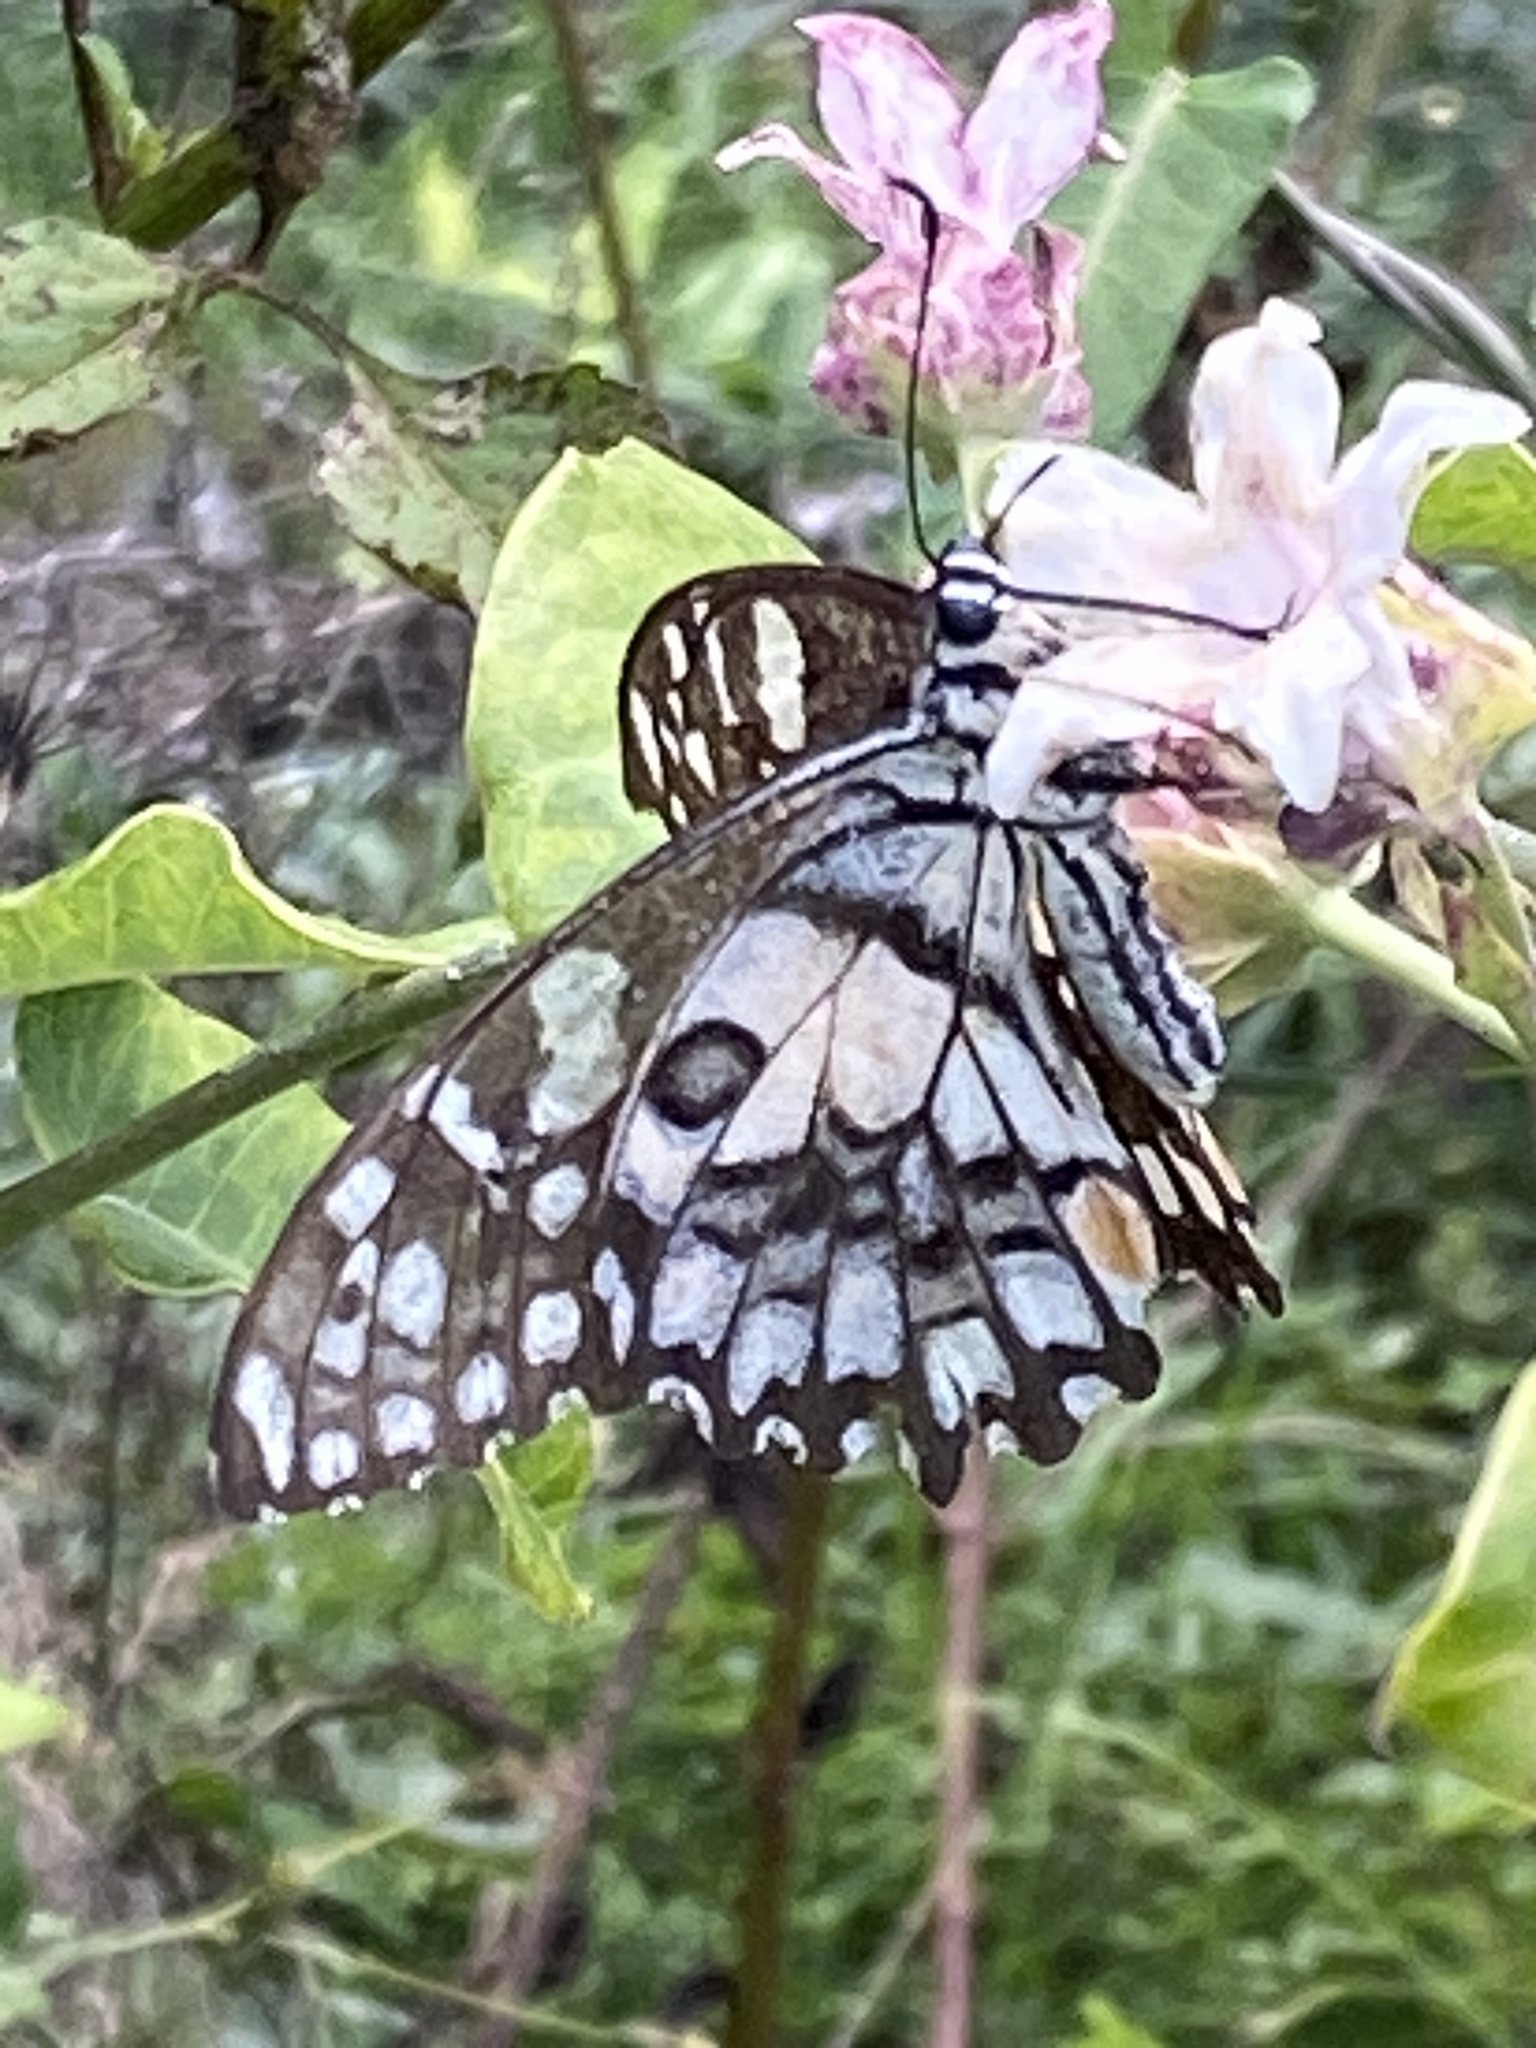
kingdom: Animalia
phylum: Arthropoda
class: Insecta
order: Lepidoptera
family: Papilionidae
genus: Papilio
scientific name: Papilio demoleus
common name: Lime butterfly
